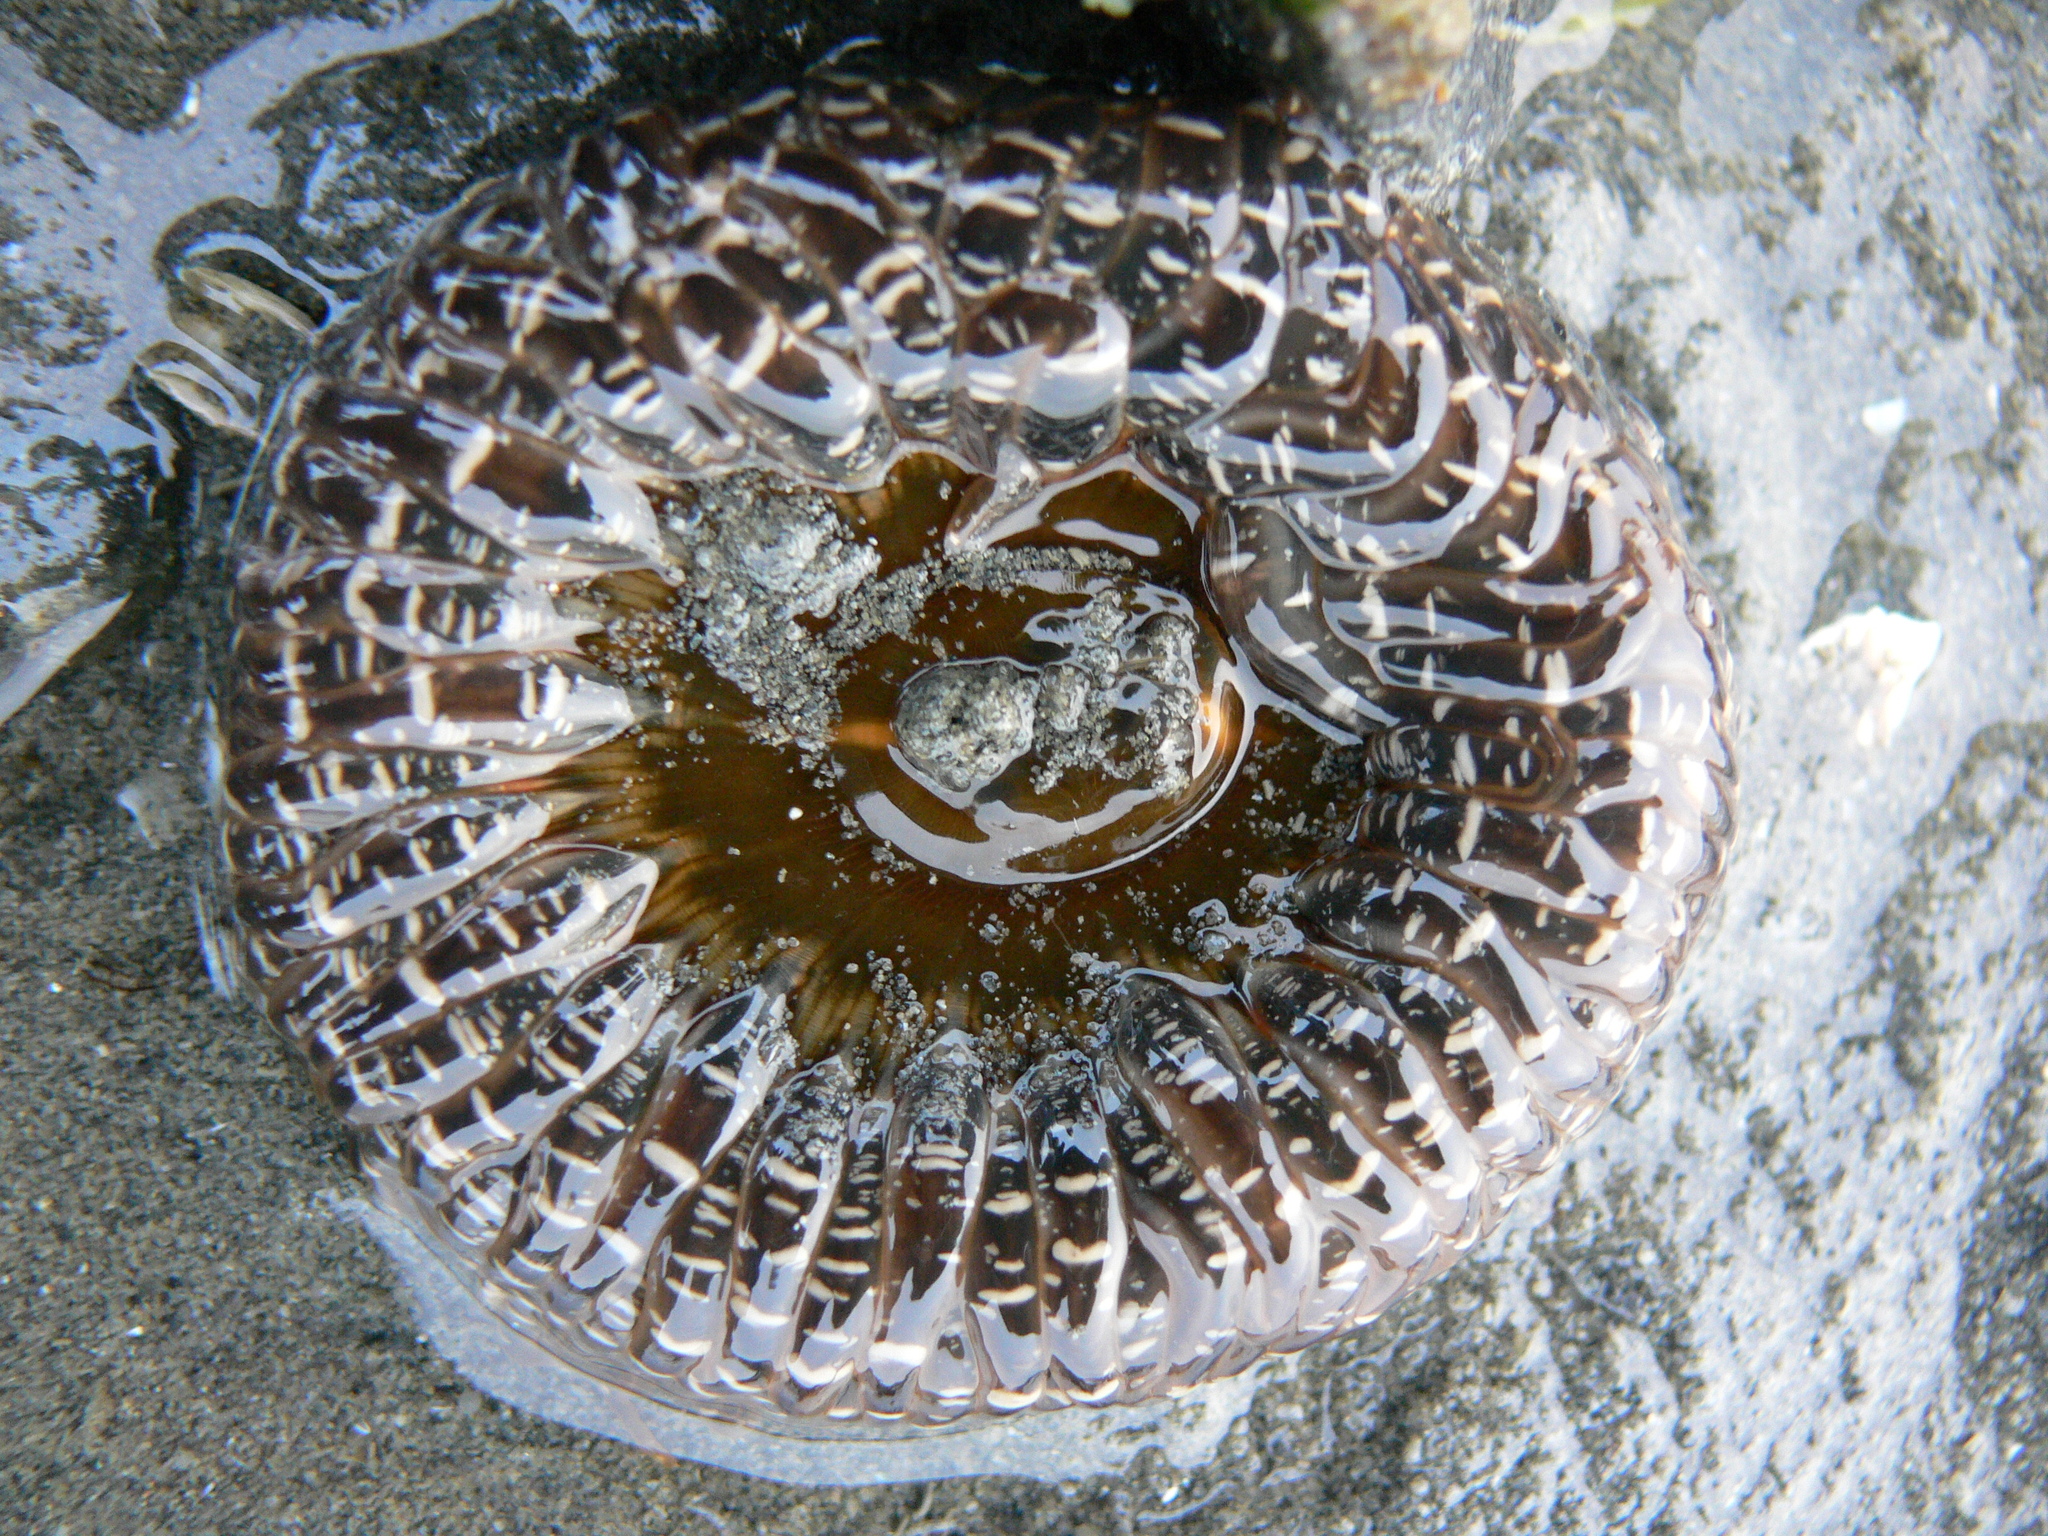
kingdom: Animalia
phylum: Cnidaria
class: Anthozoa
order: Actiniaria
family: Actiniidae
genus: Anthopleura
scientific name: Anthopleura artemisia
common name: Buried sea anemone
